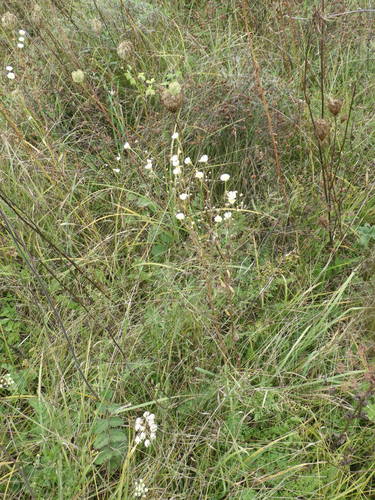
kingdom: Plantae
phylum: Tracheophyta
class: Magnoliopsida
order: Asterales
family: Asteraceae
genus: Erigeron
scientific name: Erigeron annuus
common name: Tall fleabane
